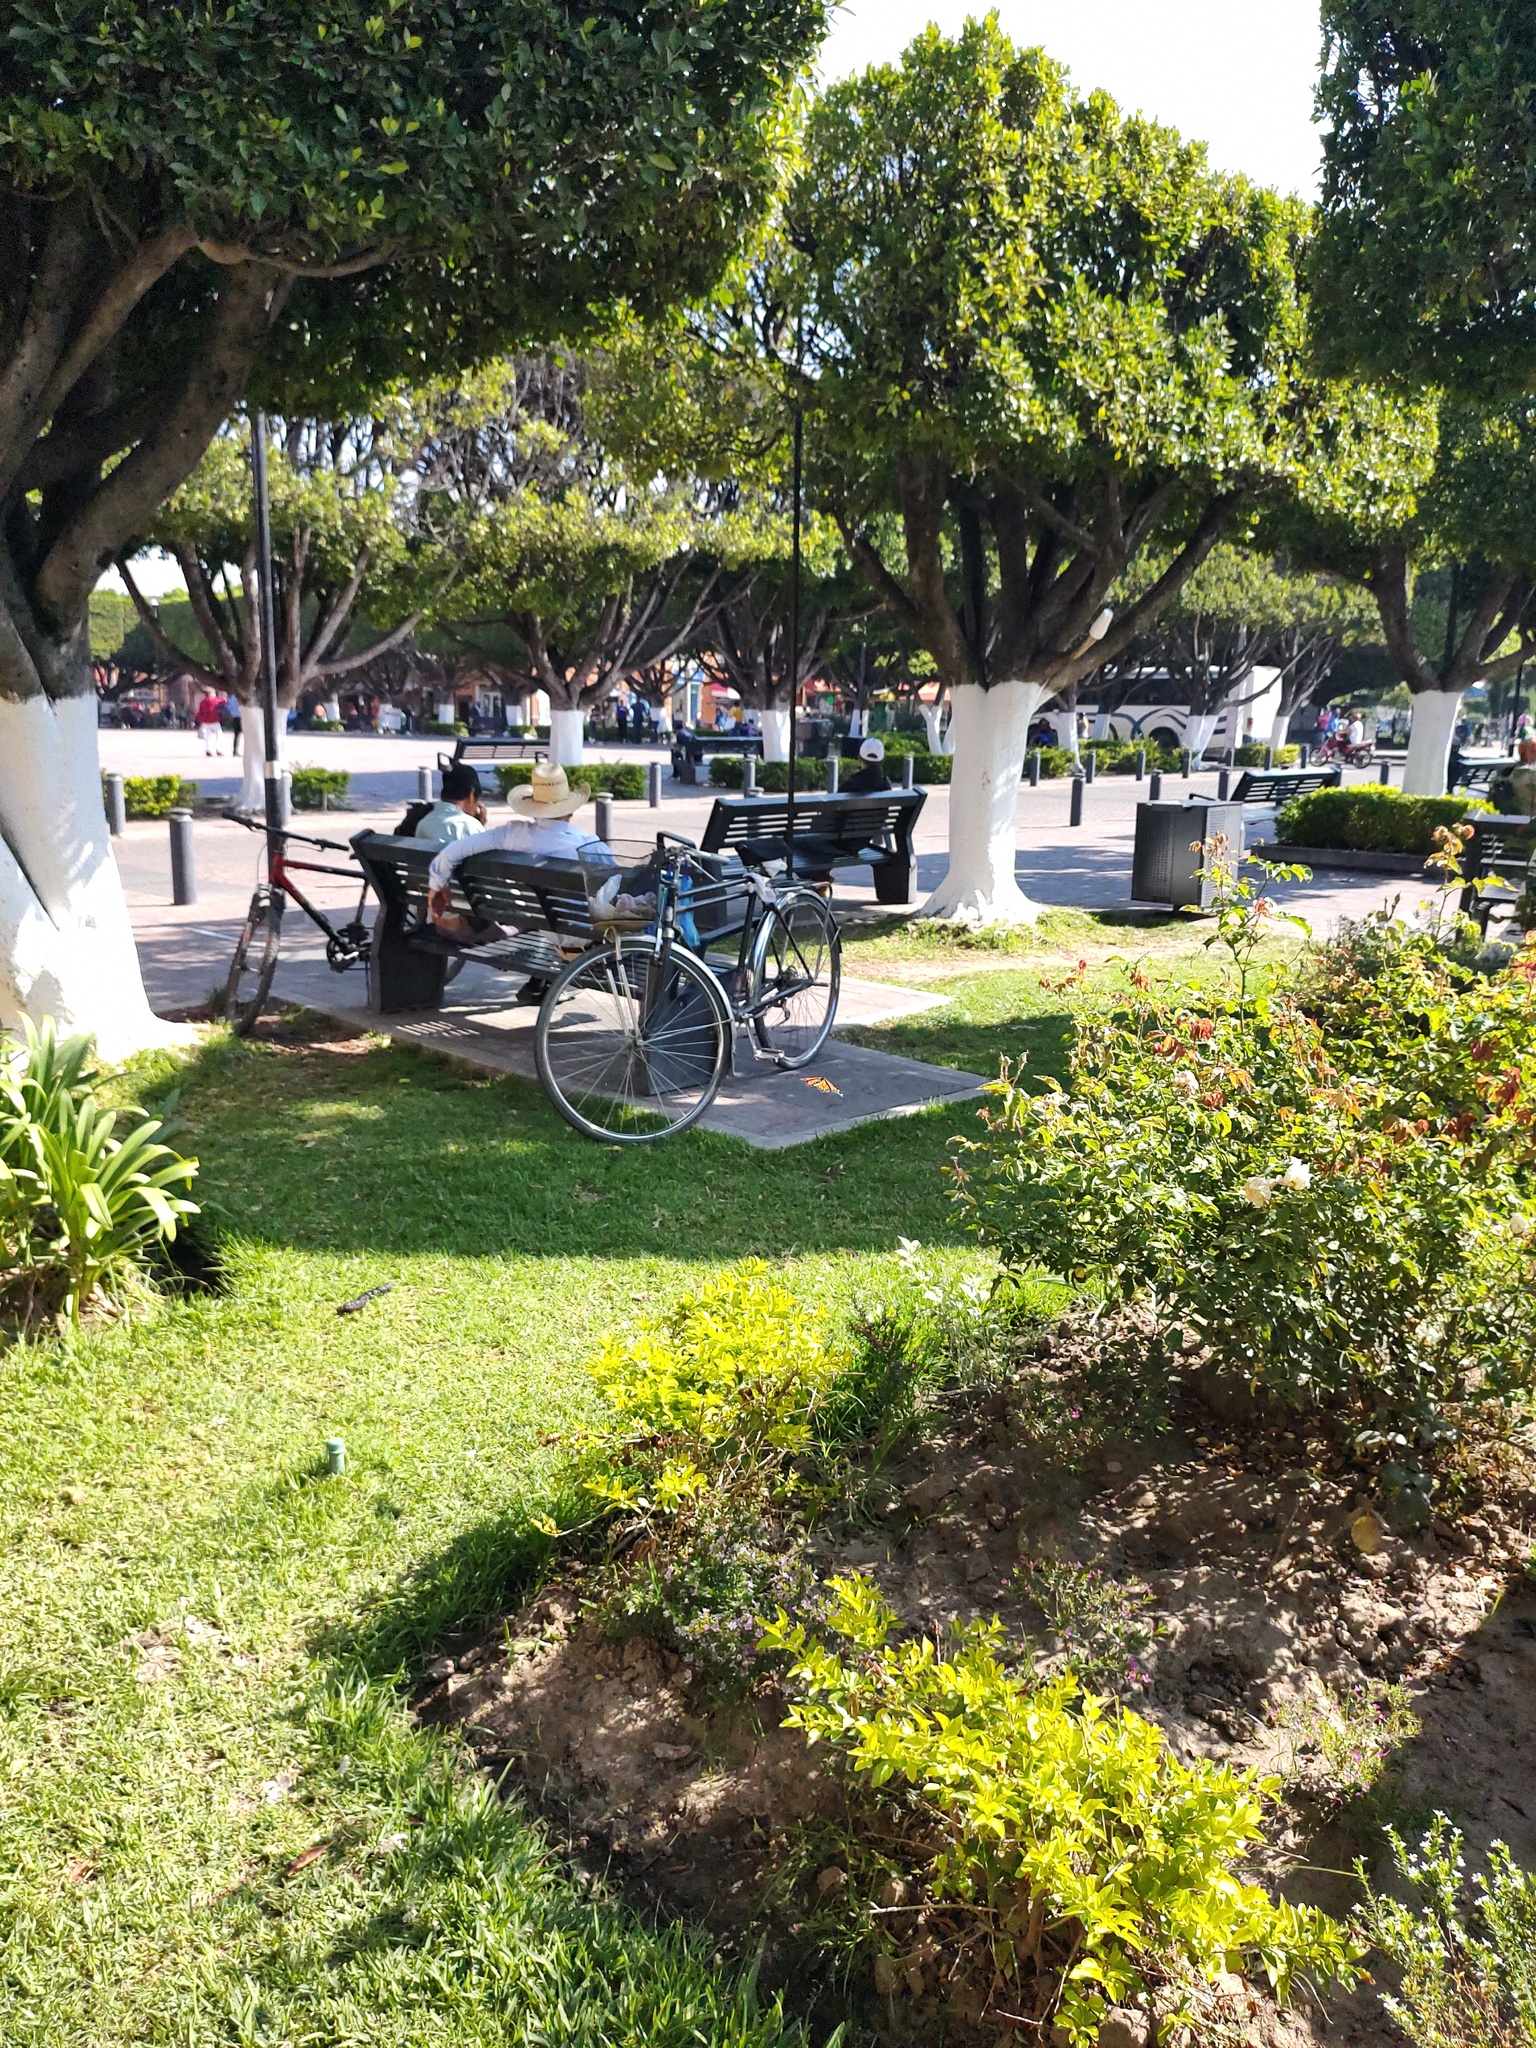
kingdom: Animalia
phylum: Arthropoda
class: Insecta
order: Lepidoptera
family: Nymphalidae
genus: Danaus
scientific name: Danaus plexippus
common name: Monarch
